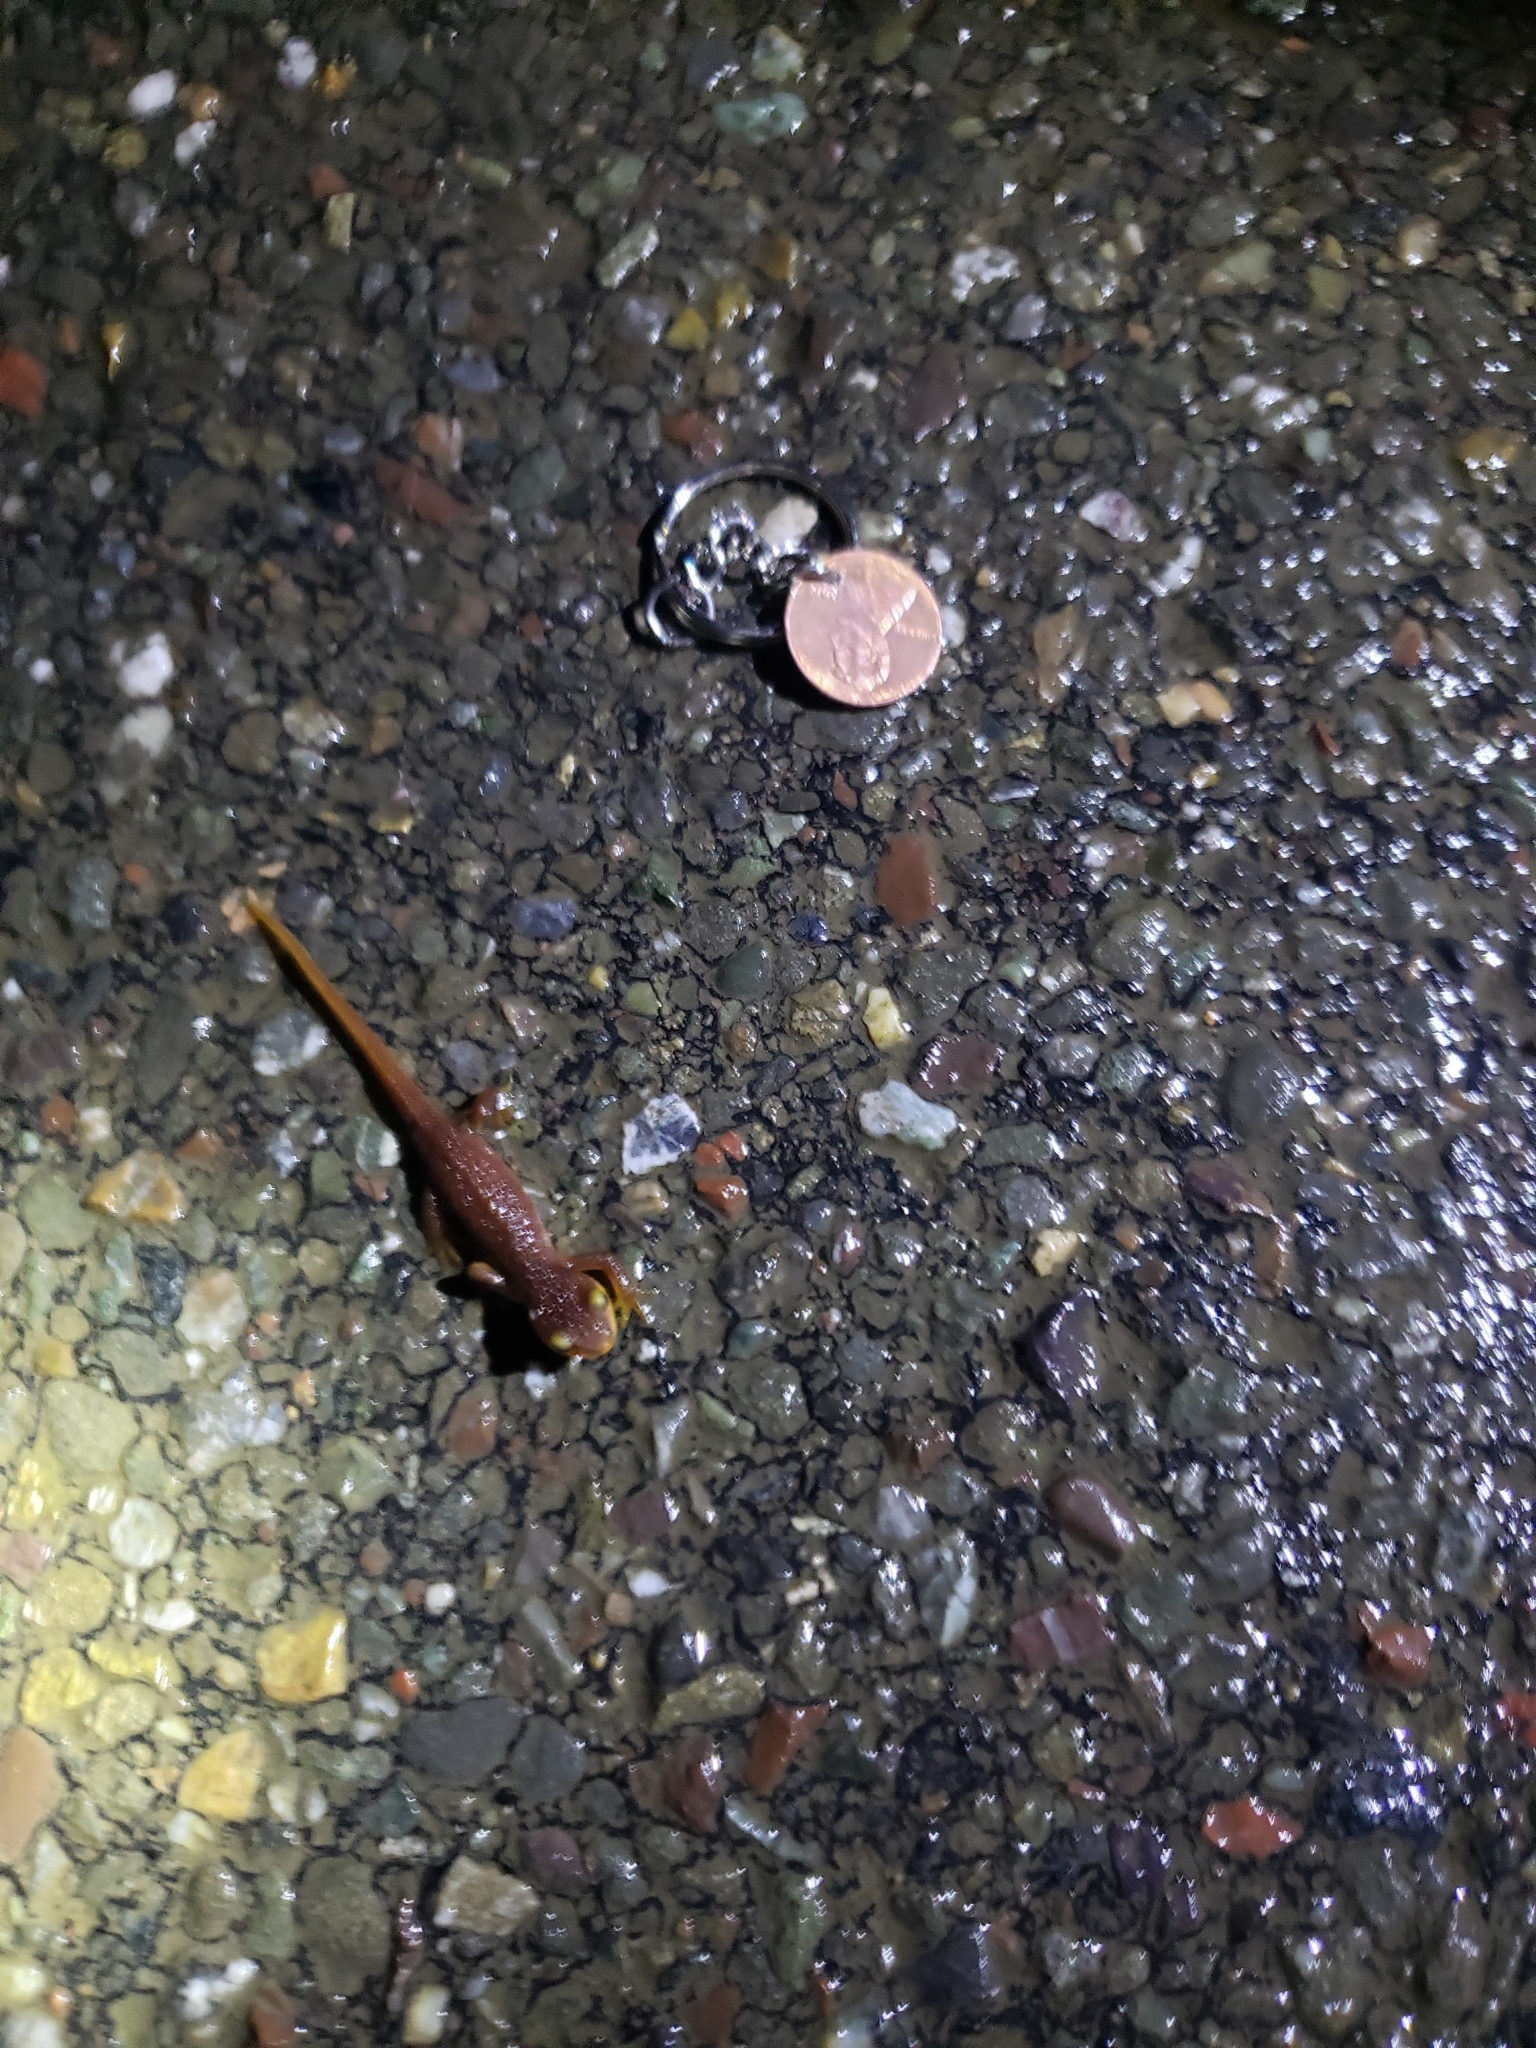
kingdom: Animalia
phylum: Chordata
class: Amphibia
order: Caudata
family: Salamandridae
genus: Taricha
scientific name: Taricha torosa
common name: California newt
